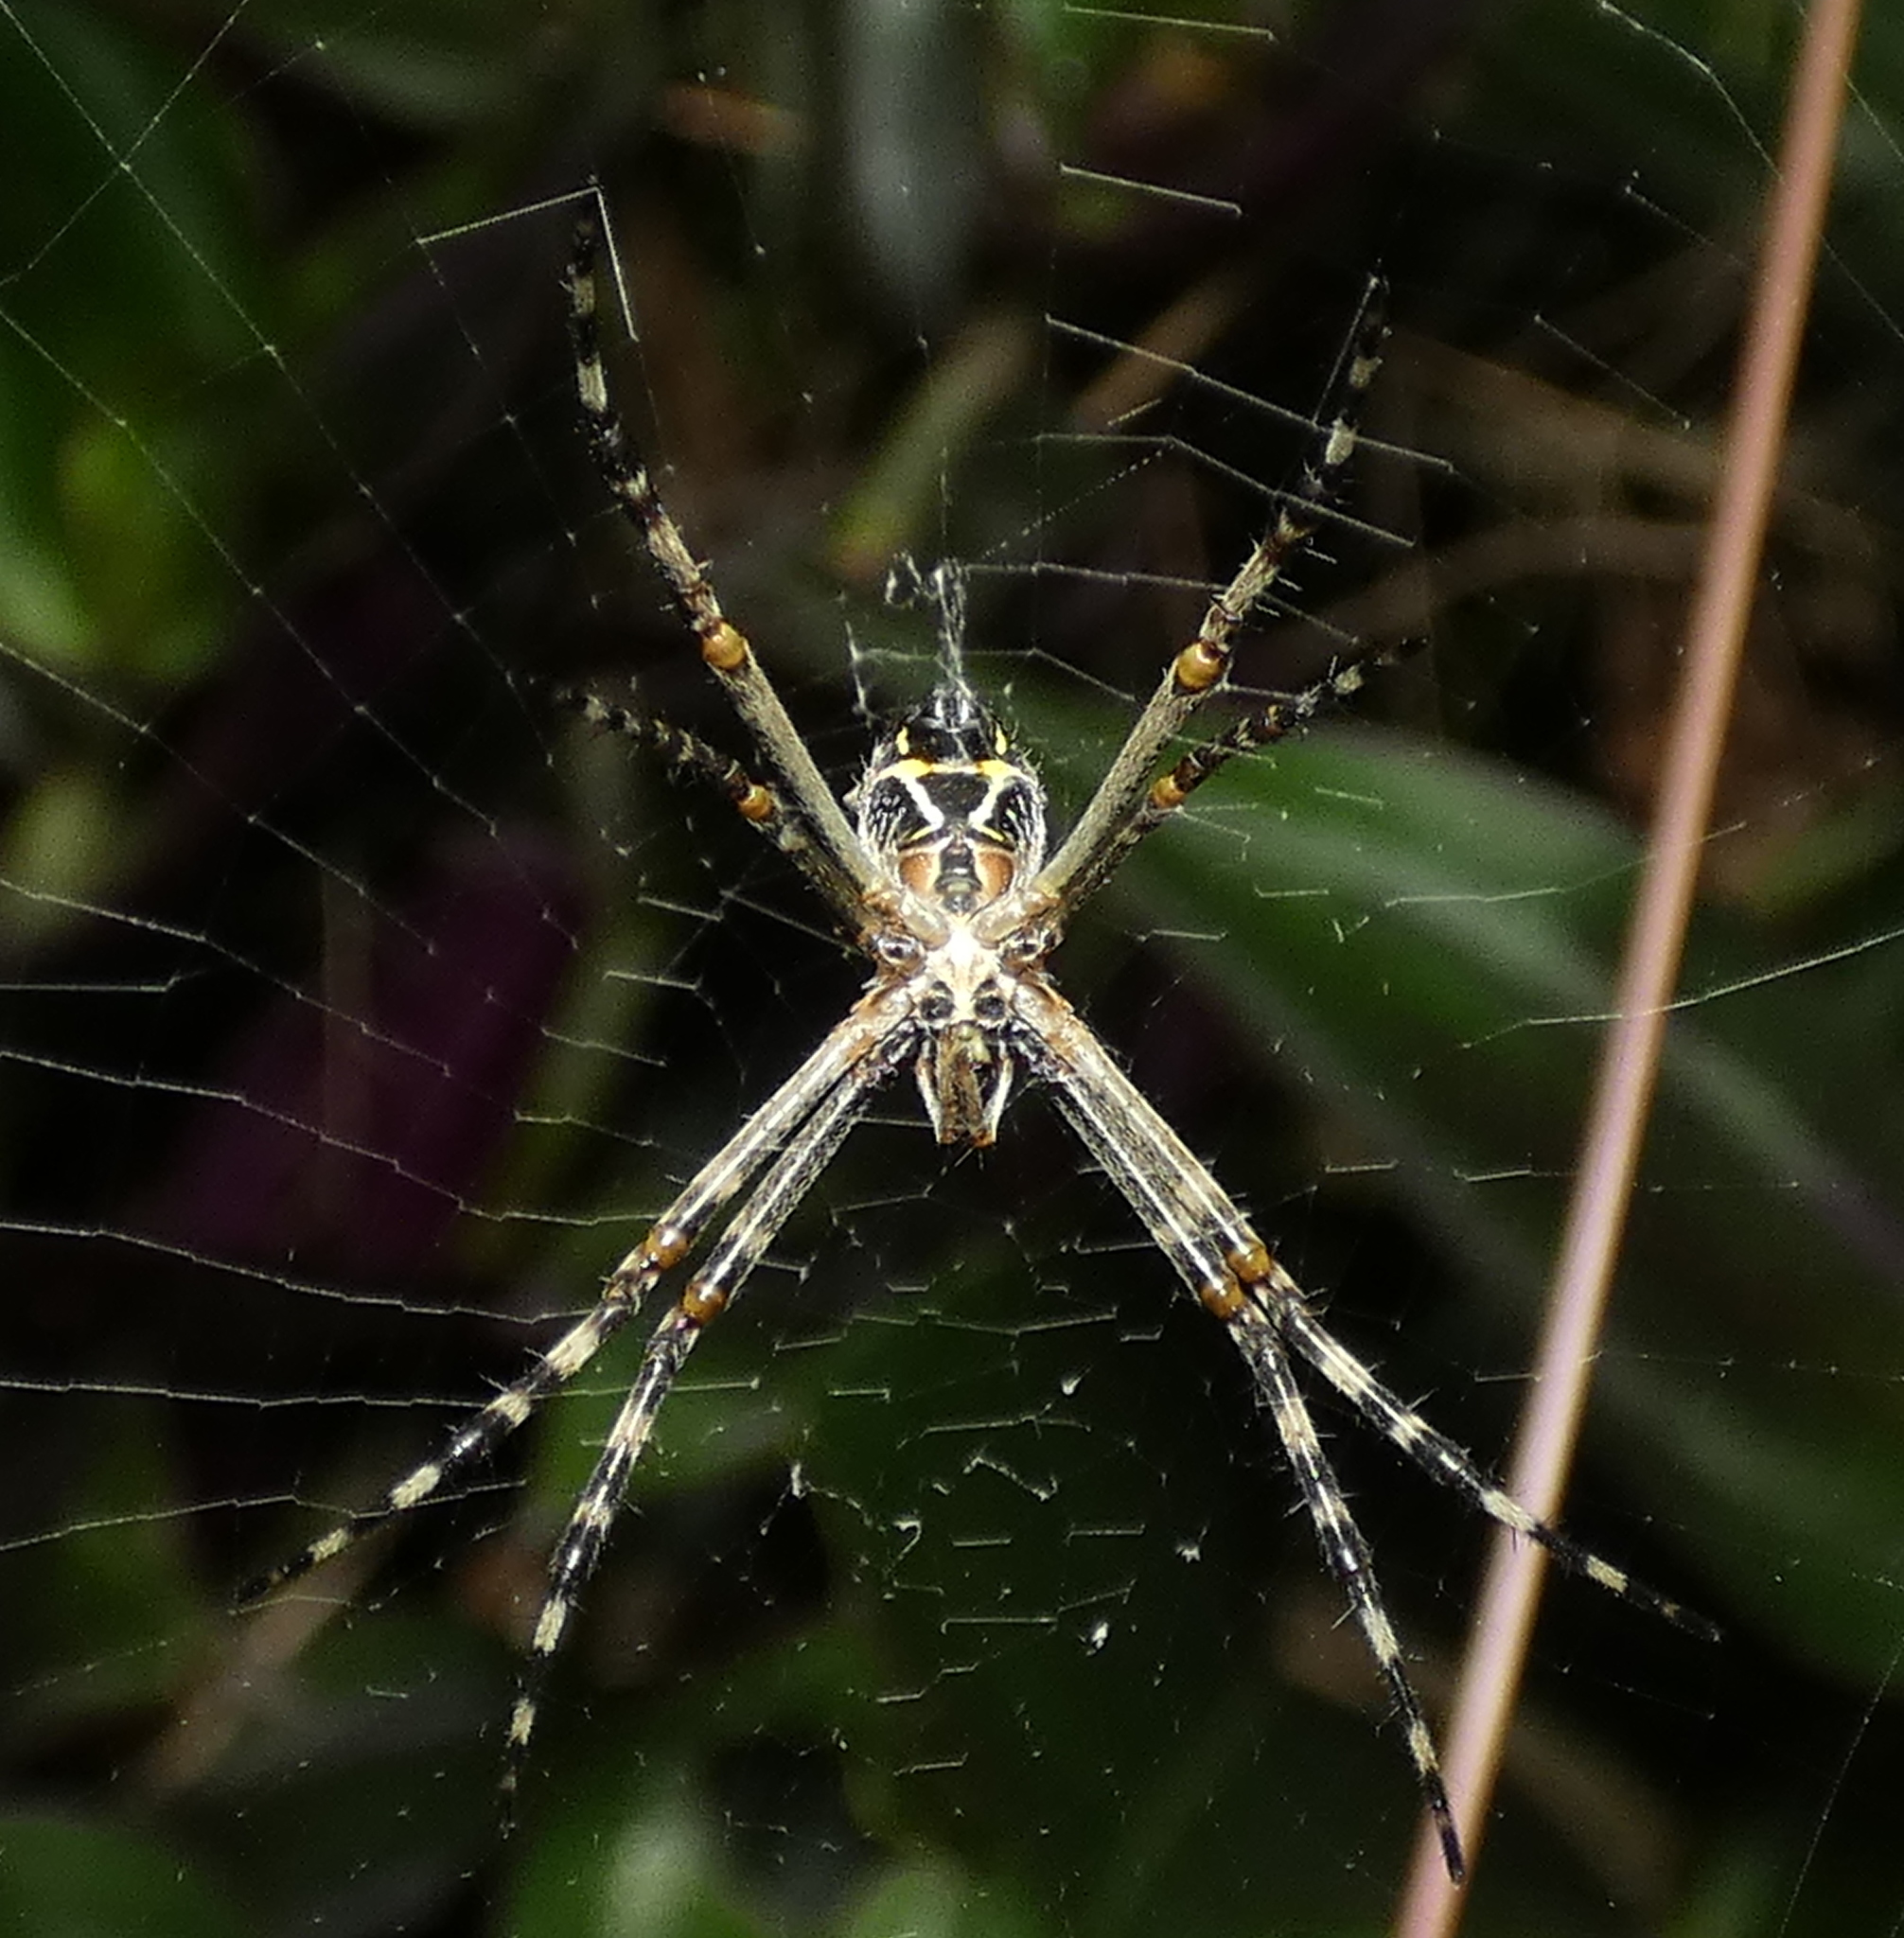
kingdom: Animalia
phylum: Arthropoda
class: Arachnida
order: Araneae
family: Araneidae
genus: Argiope
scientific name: Argiope argentata
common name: Orb weavers
